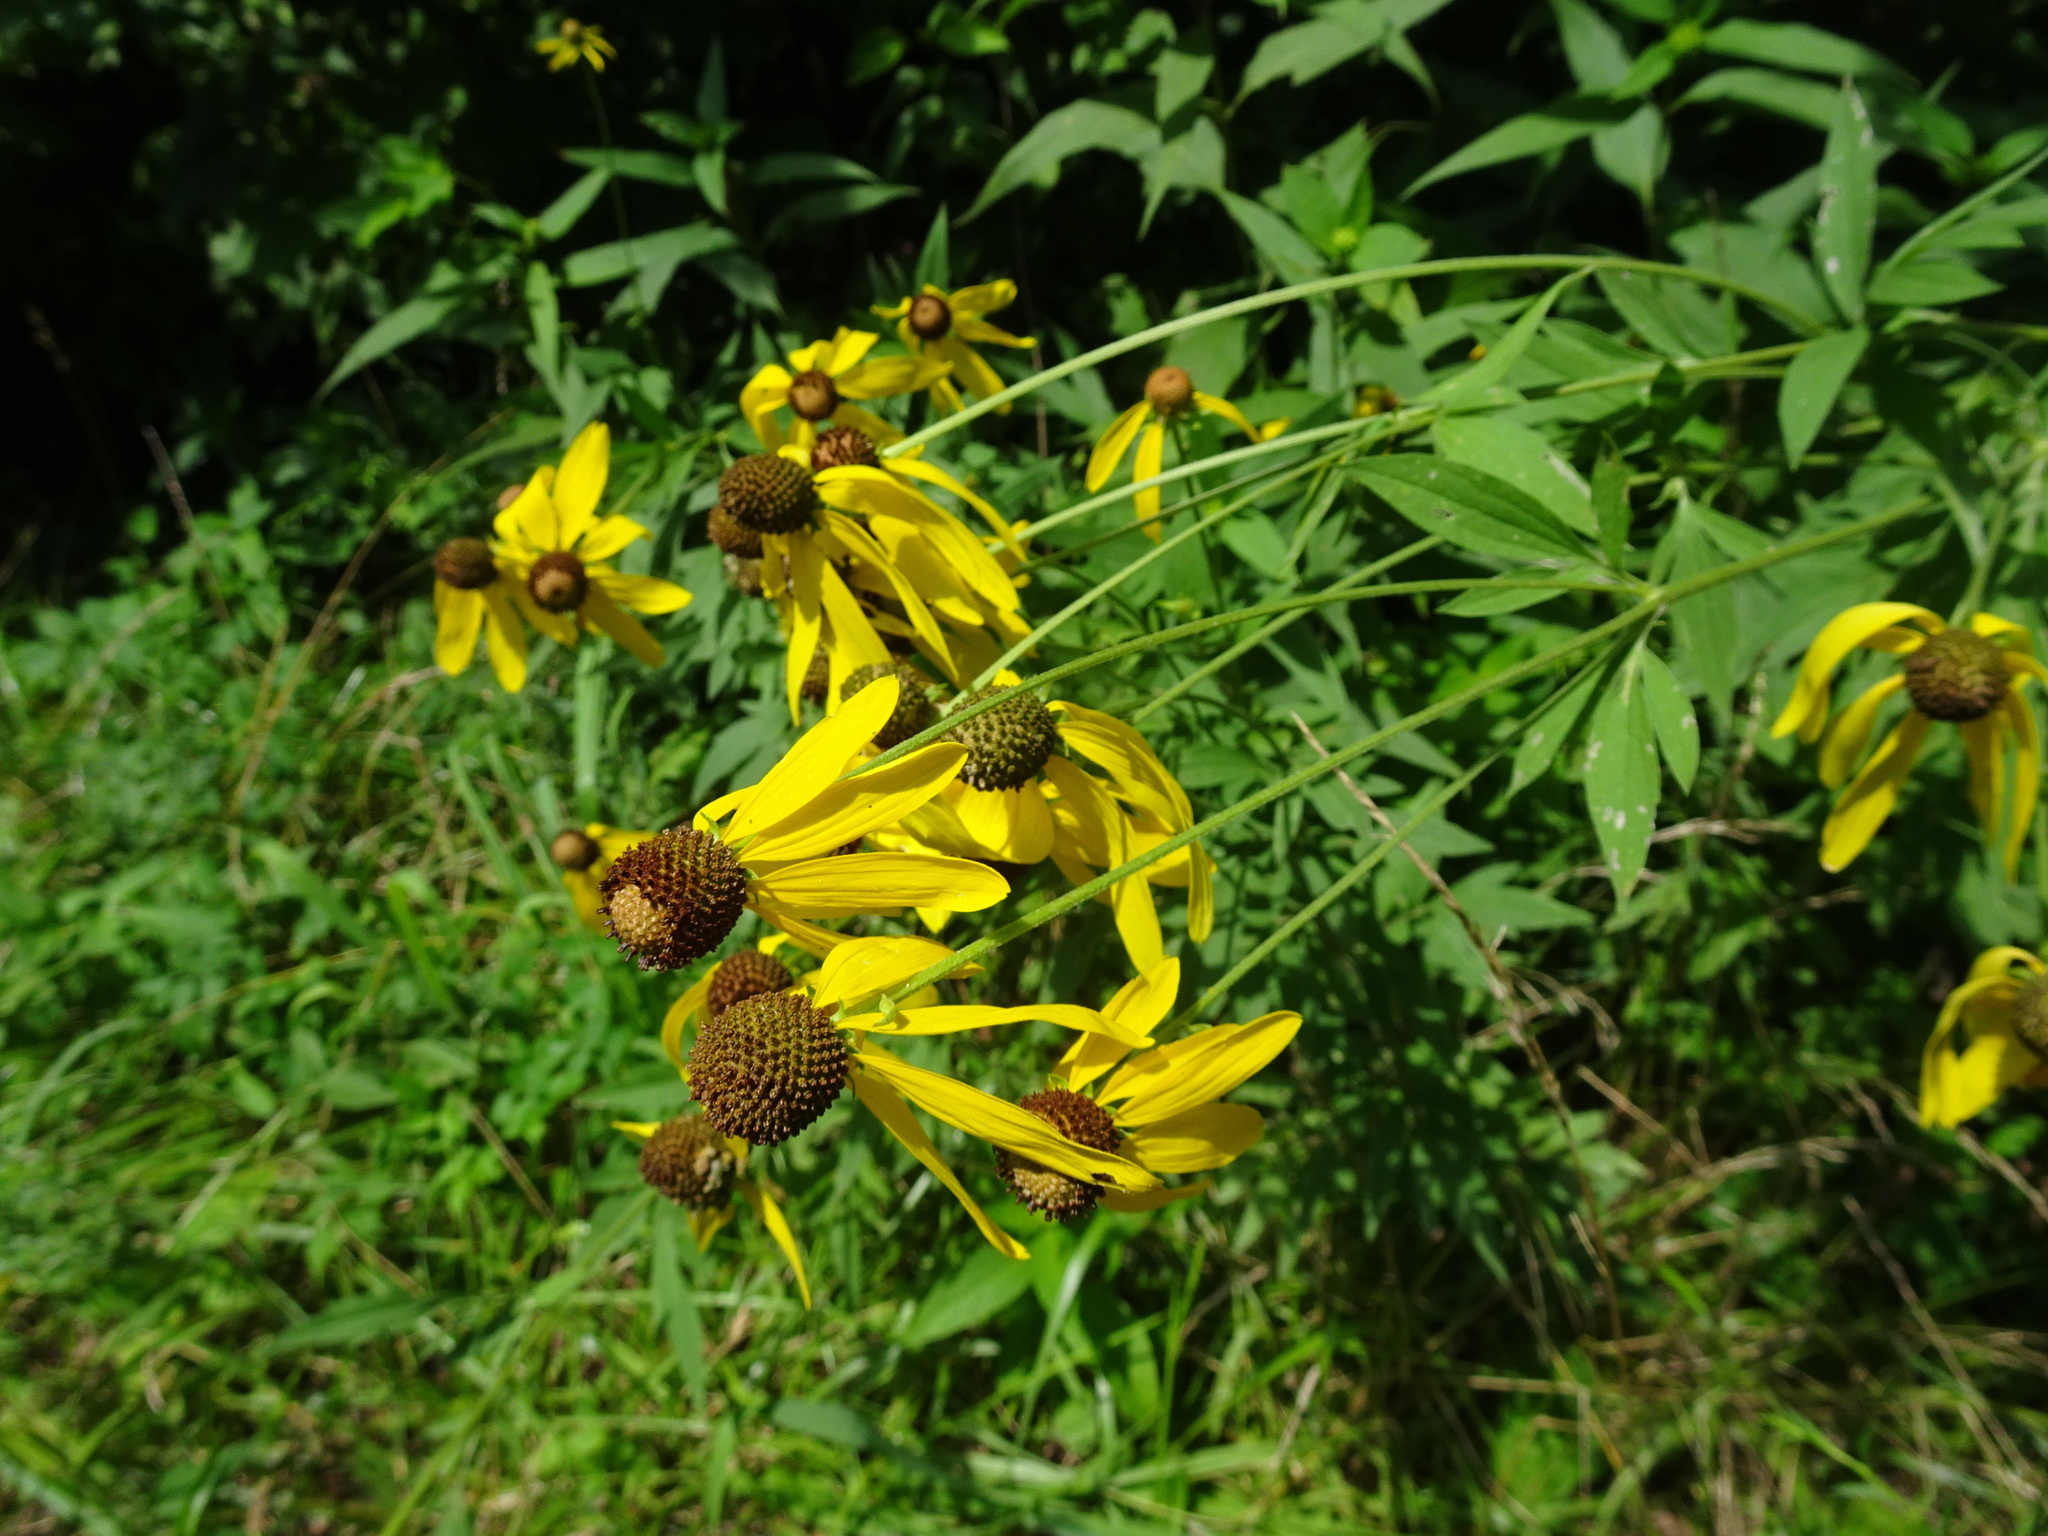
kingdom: Plantae
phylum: Tracheophyta
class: Magnoliopsida
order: Asterales
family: Asteraceae
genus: Ratibida
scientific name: Ratibida pinnata
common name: Drooping prairie-coneflower
